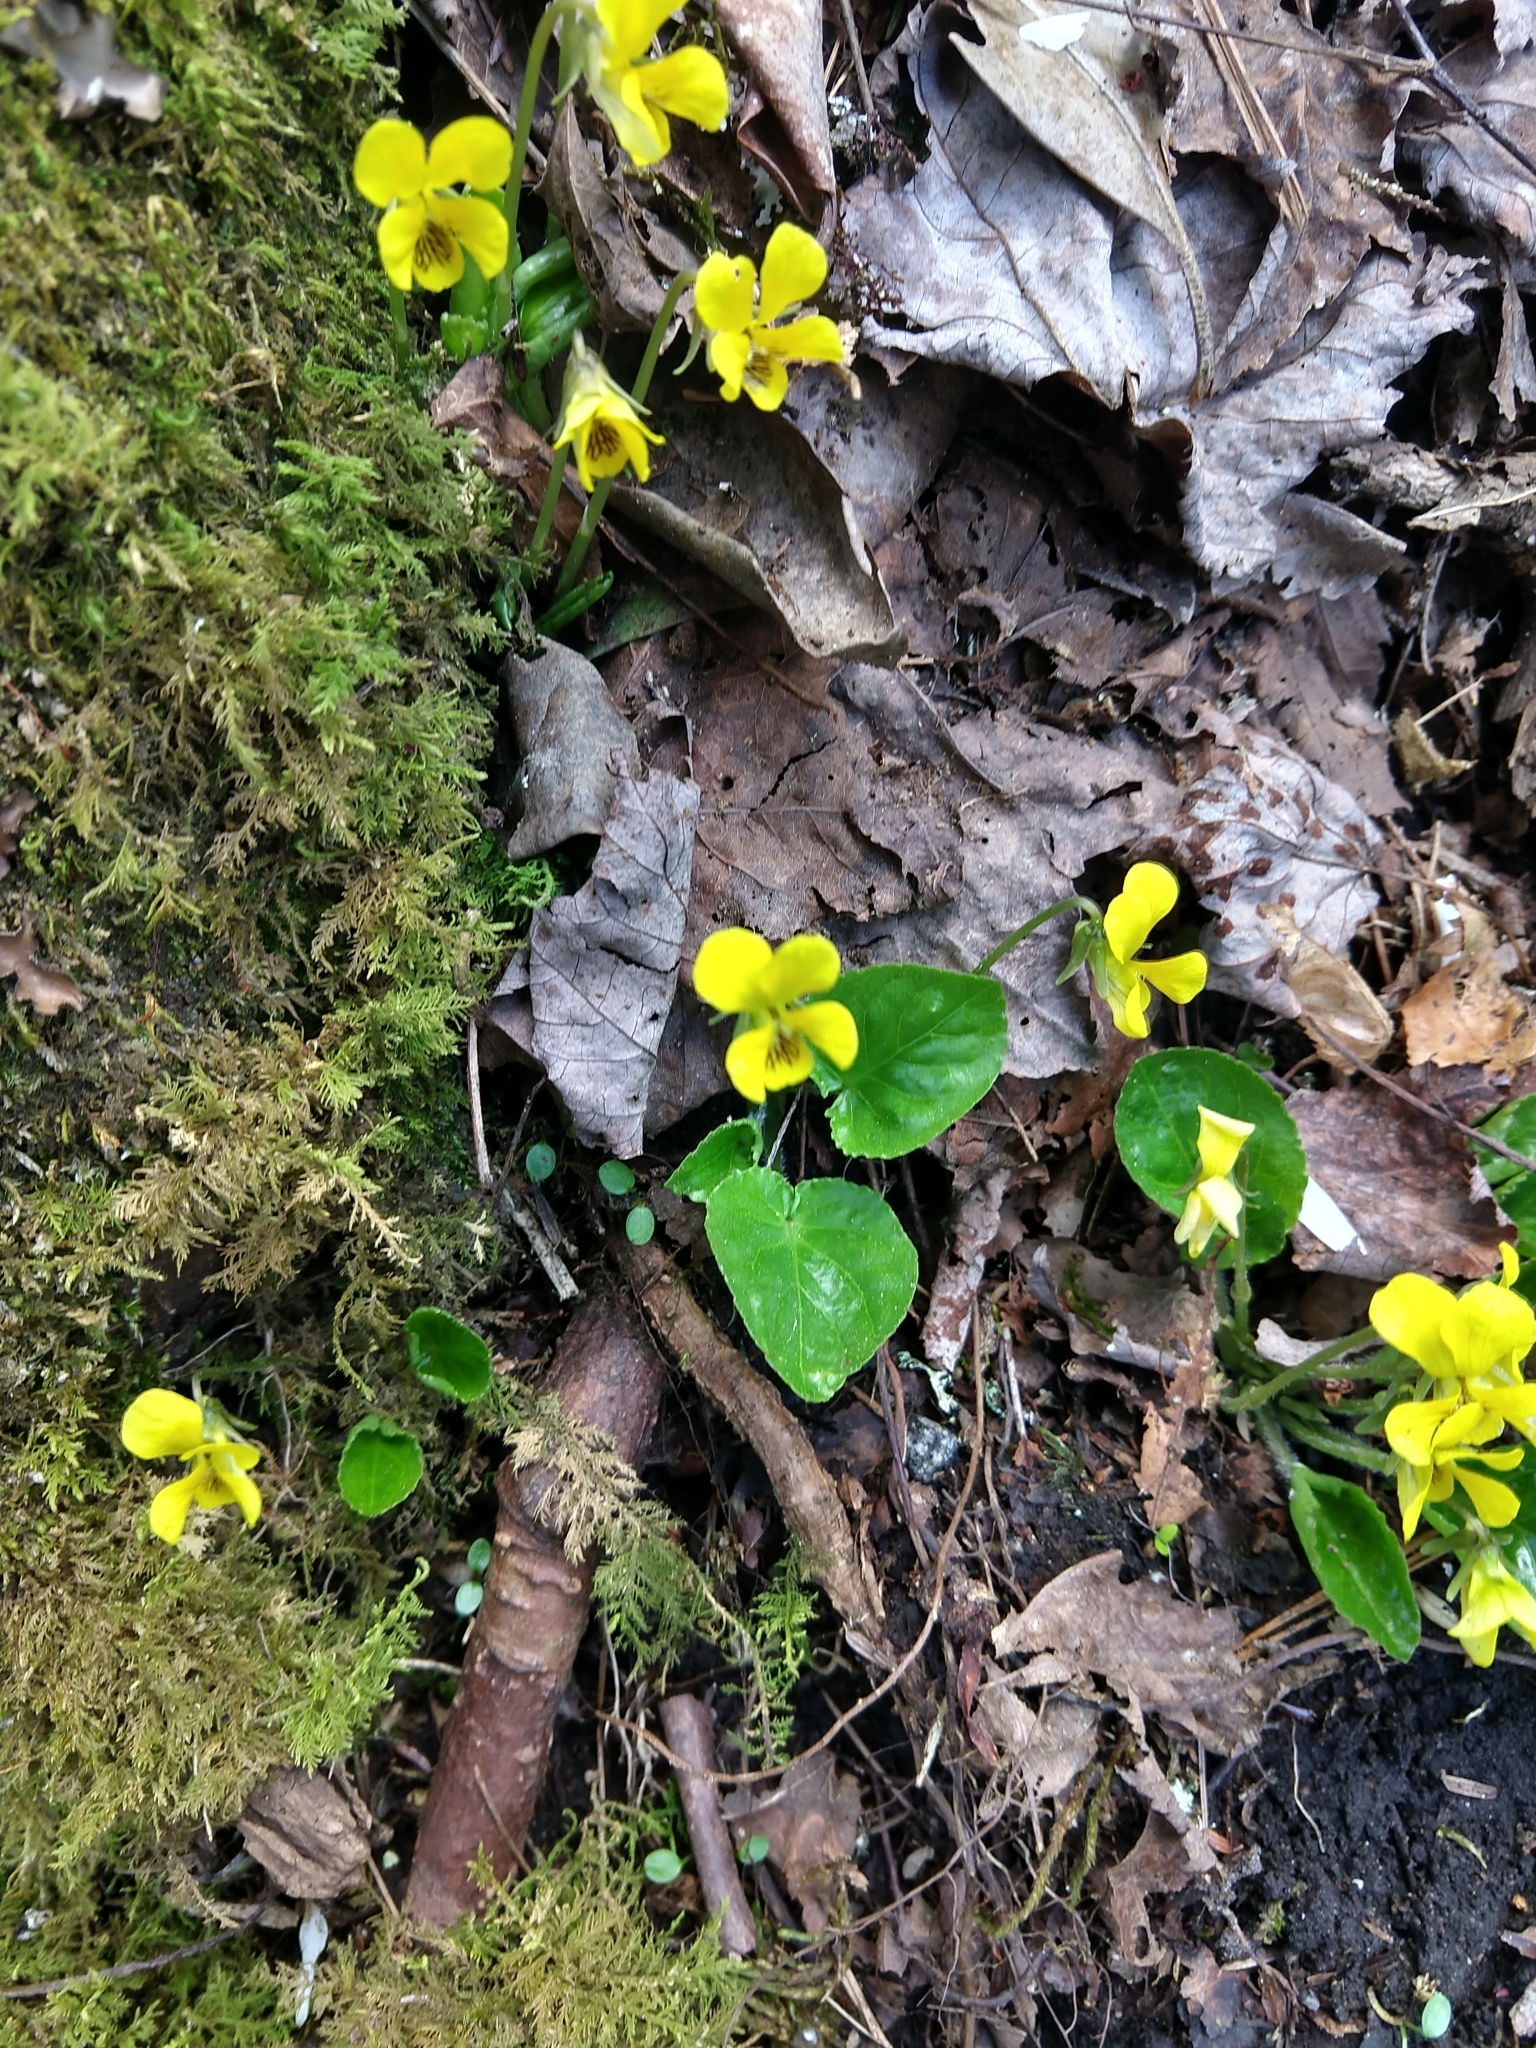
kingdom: Plantae
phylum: Tracheophyta
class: Magnoliopsida
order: Malpighiales
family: Violaceae
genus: Viola
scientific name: Viola rotundifolia
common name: Early yellow violet
